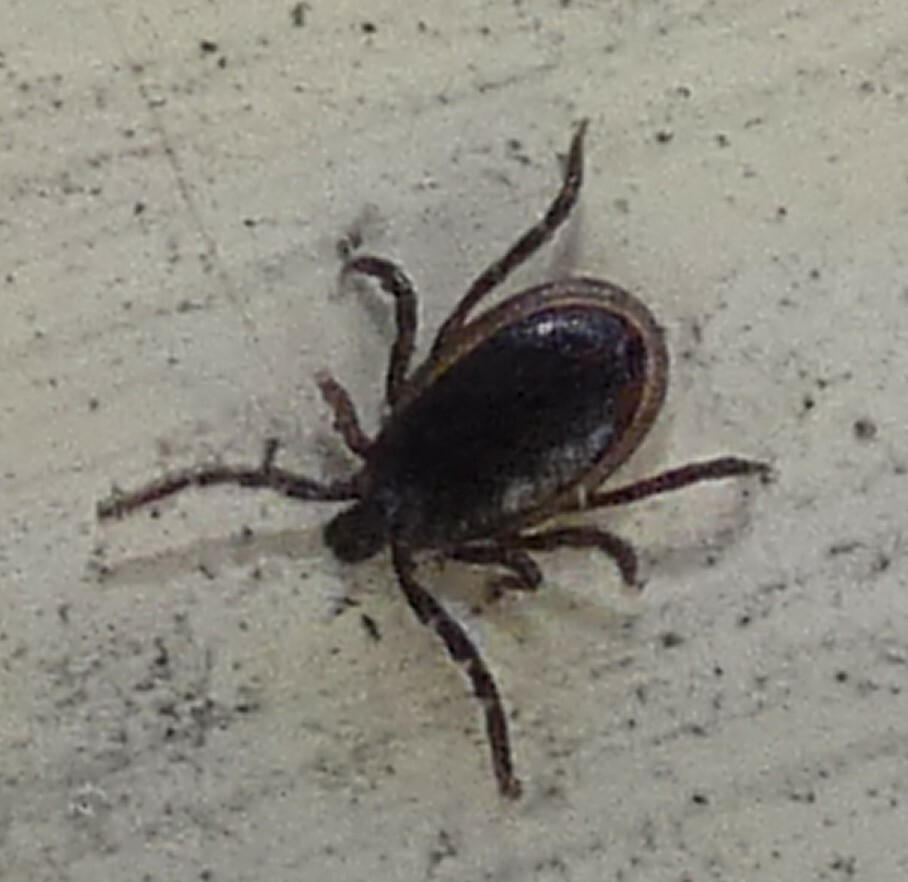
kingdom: Animalia
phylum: Arthropoda
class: Arachnida
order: Ixodida
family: Ixodidae
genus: Ixodes
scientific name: Ixodes scapularis
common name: Black legged tick
